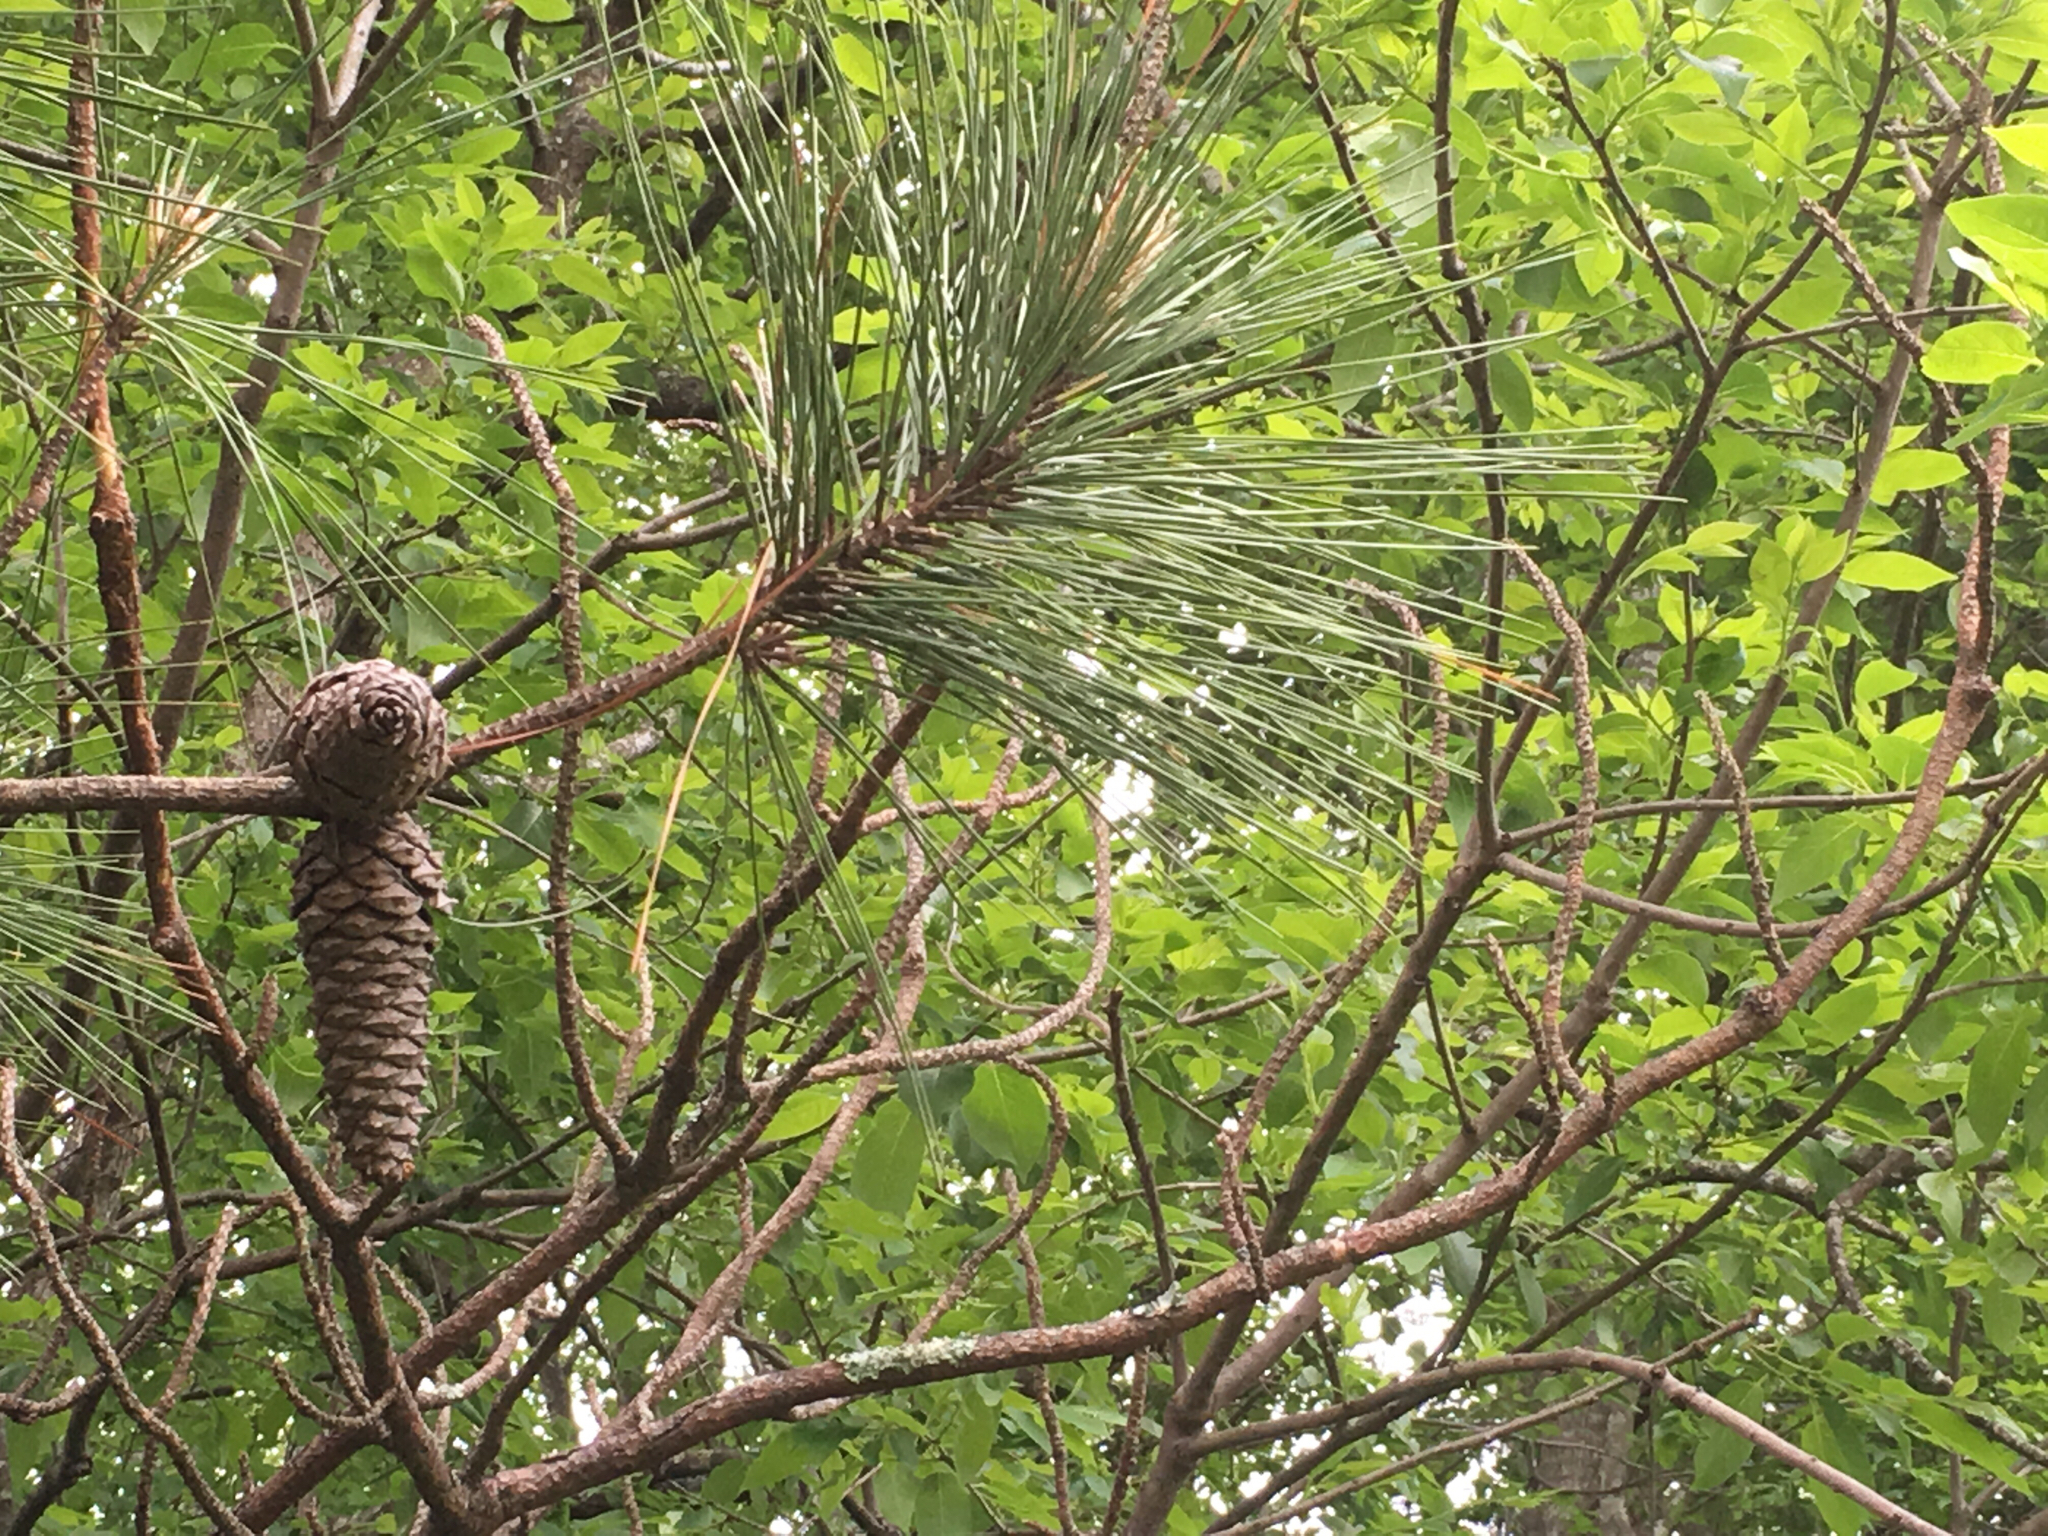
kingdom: Plantae
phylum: Tracheophyta
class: Pinopsida
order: Pinales
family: Pinaceae
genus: Pinus
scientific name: Pinus taeda
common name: Loblolly pine
